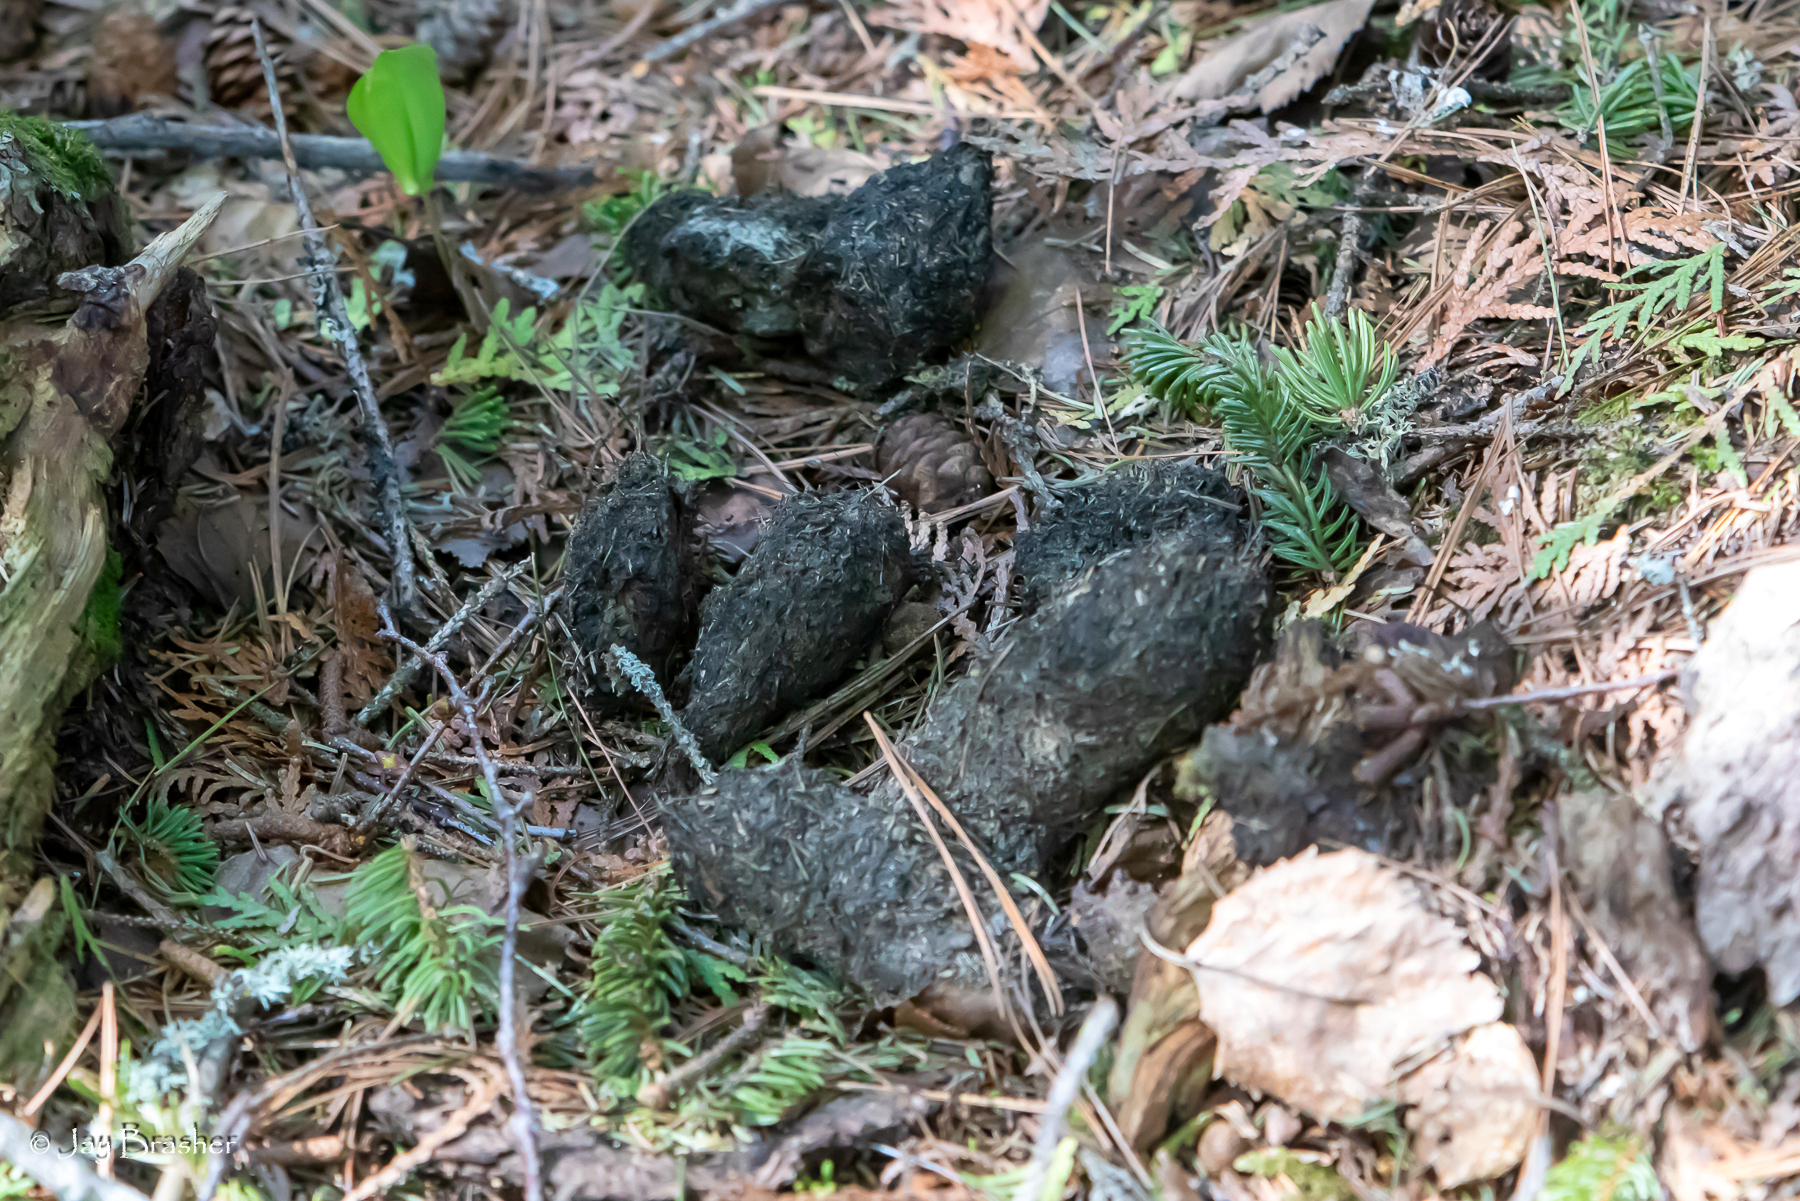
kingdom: Animalia
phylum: Chordata
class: Mammalia
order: Carnivora
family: Canidae
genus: Canis
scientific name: Canis lupus
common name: Gray wolf
